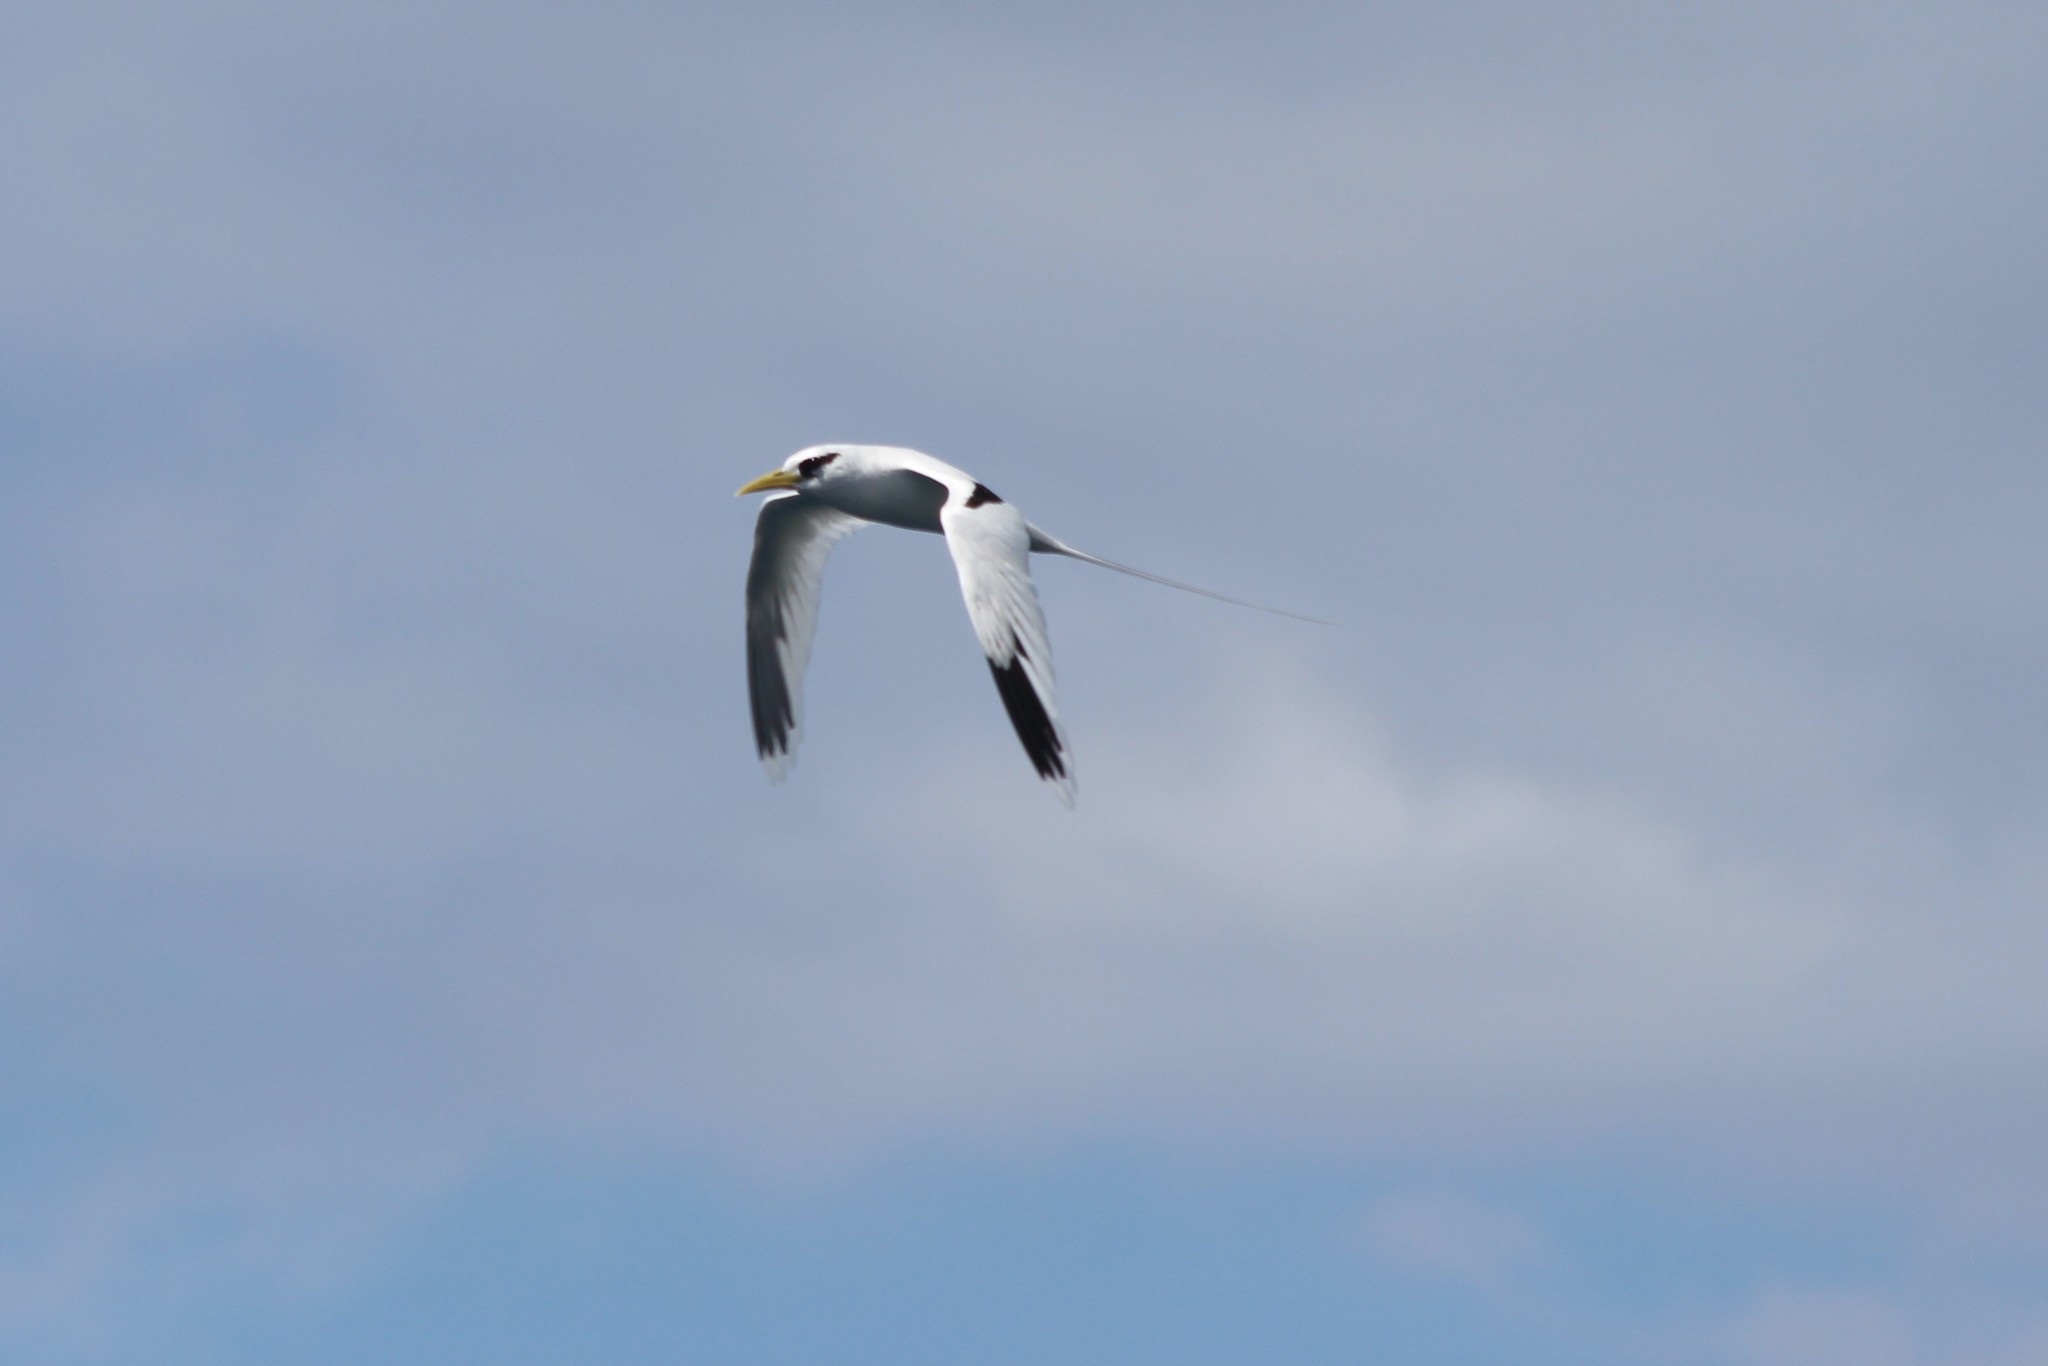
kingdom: Animalia
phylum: Chordata
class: Aves
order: Phaethontiformes
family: Phaethontidae
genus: Phaethon
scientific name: Phaethon lepturus
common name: White-tailed tropicbird
